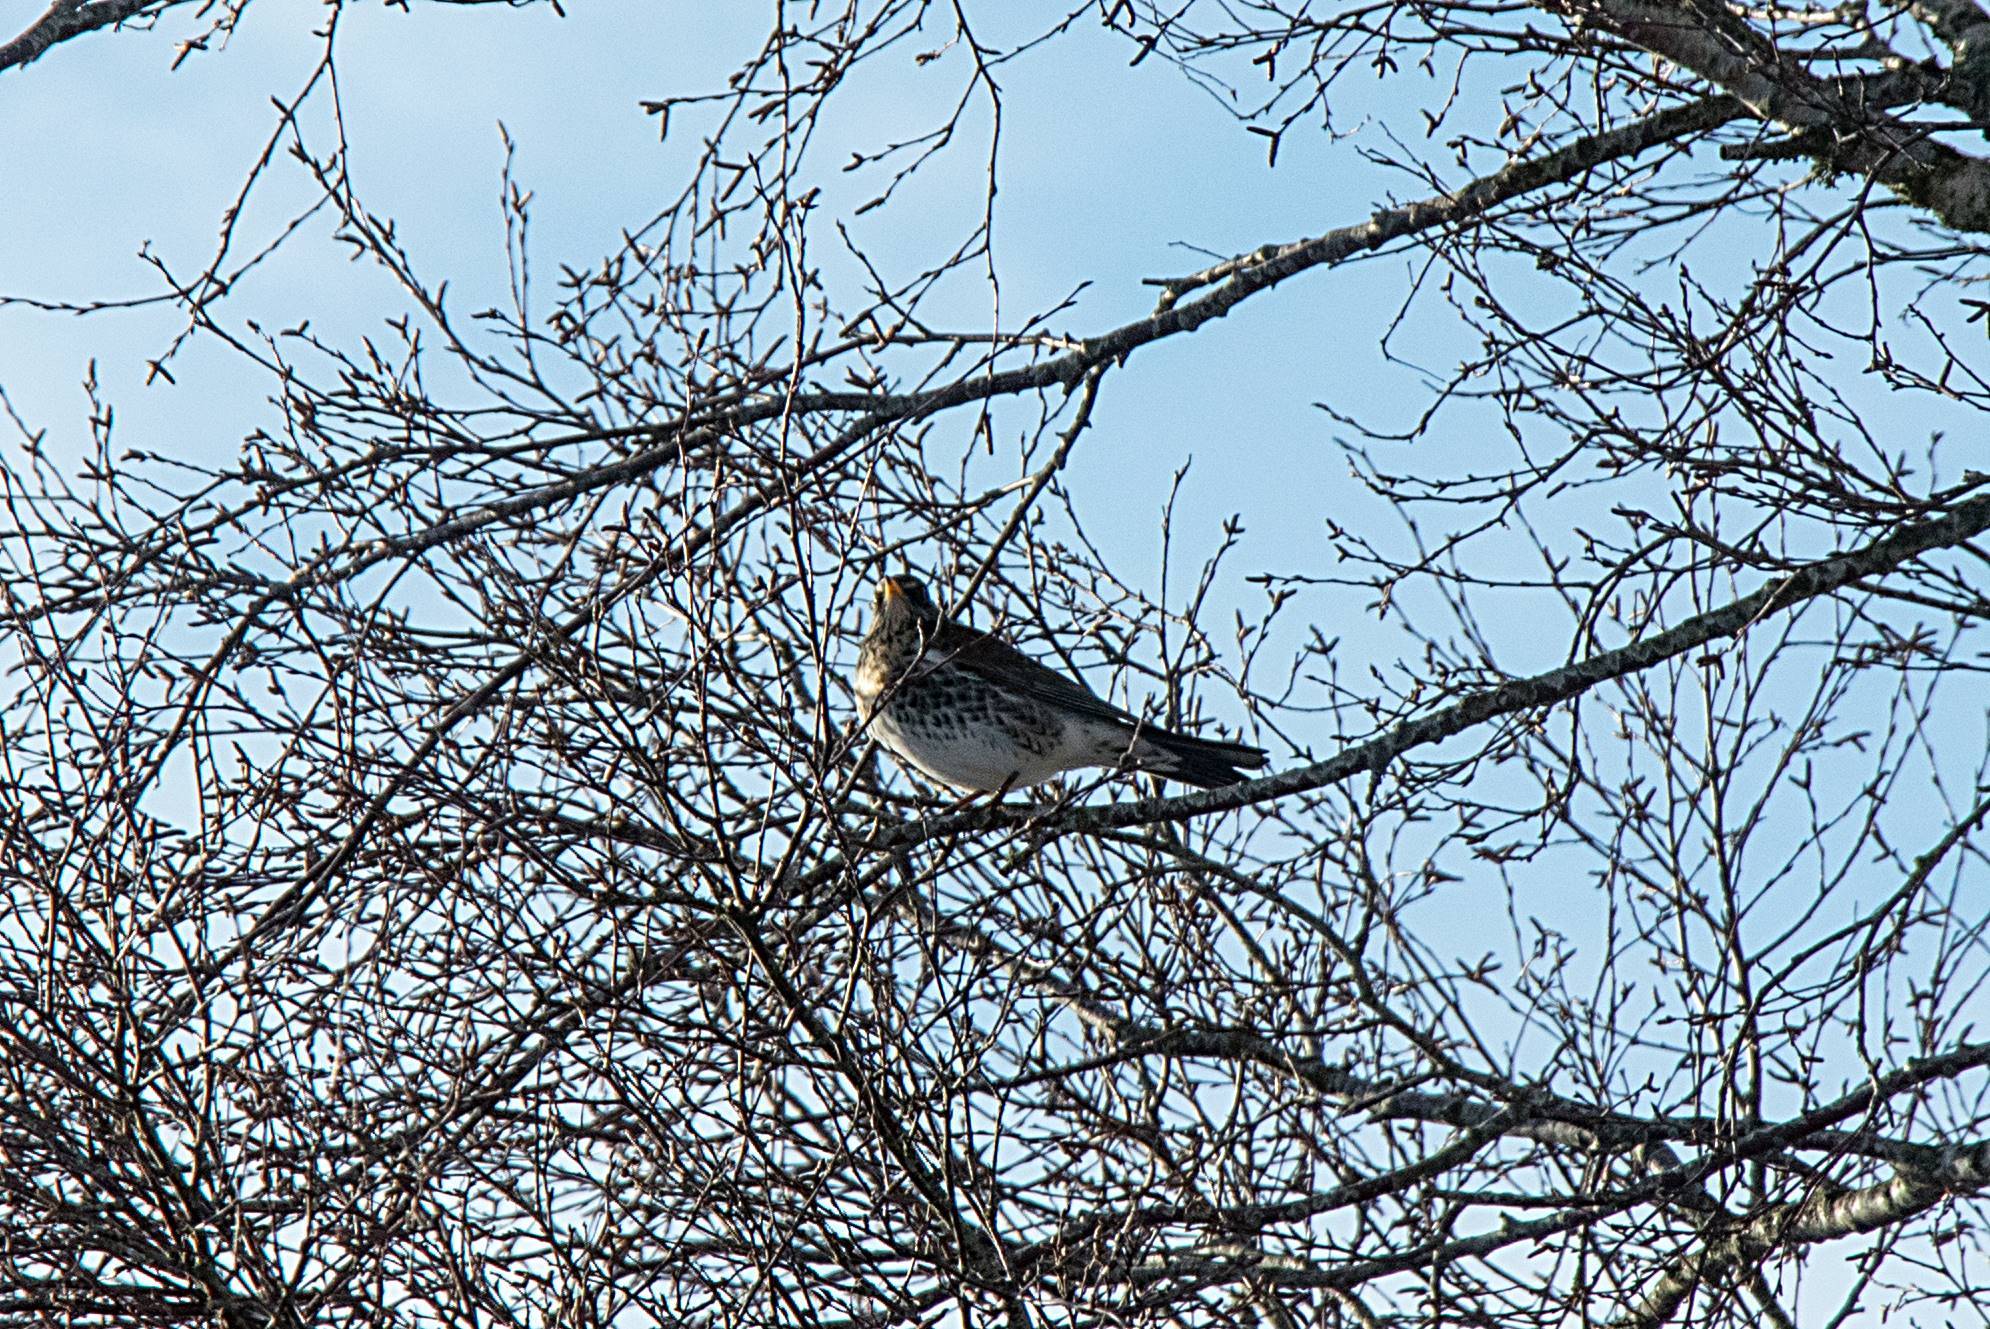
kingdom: Animalia
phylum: Chordata
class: Aves
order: Passeriformes
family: Turdidae
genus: Turdus
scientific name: Turdus pilaris
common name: Fieldfare
